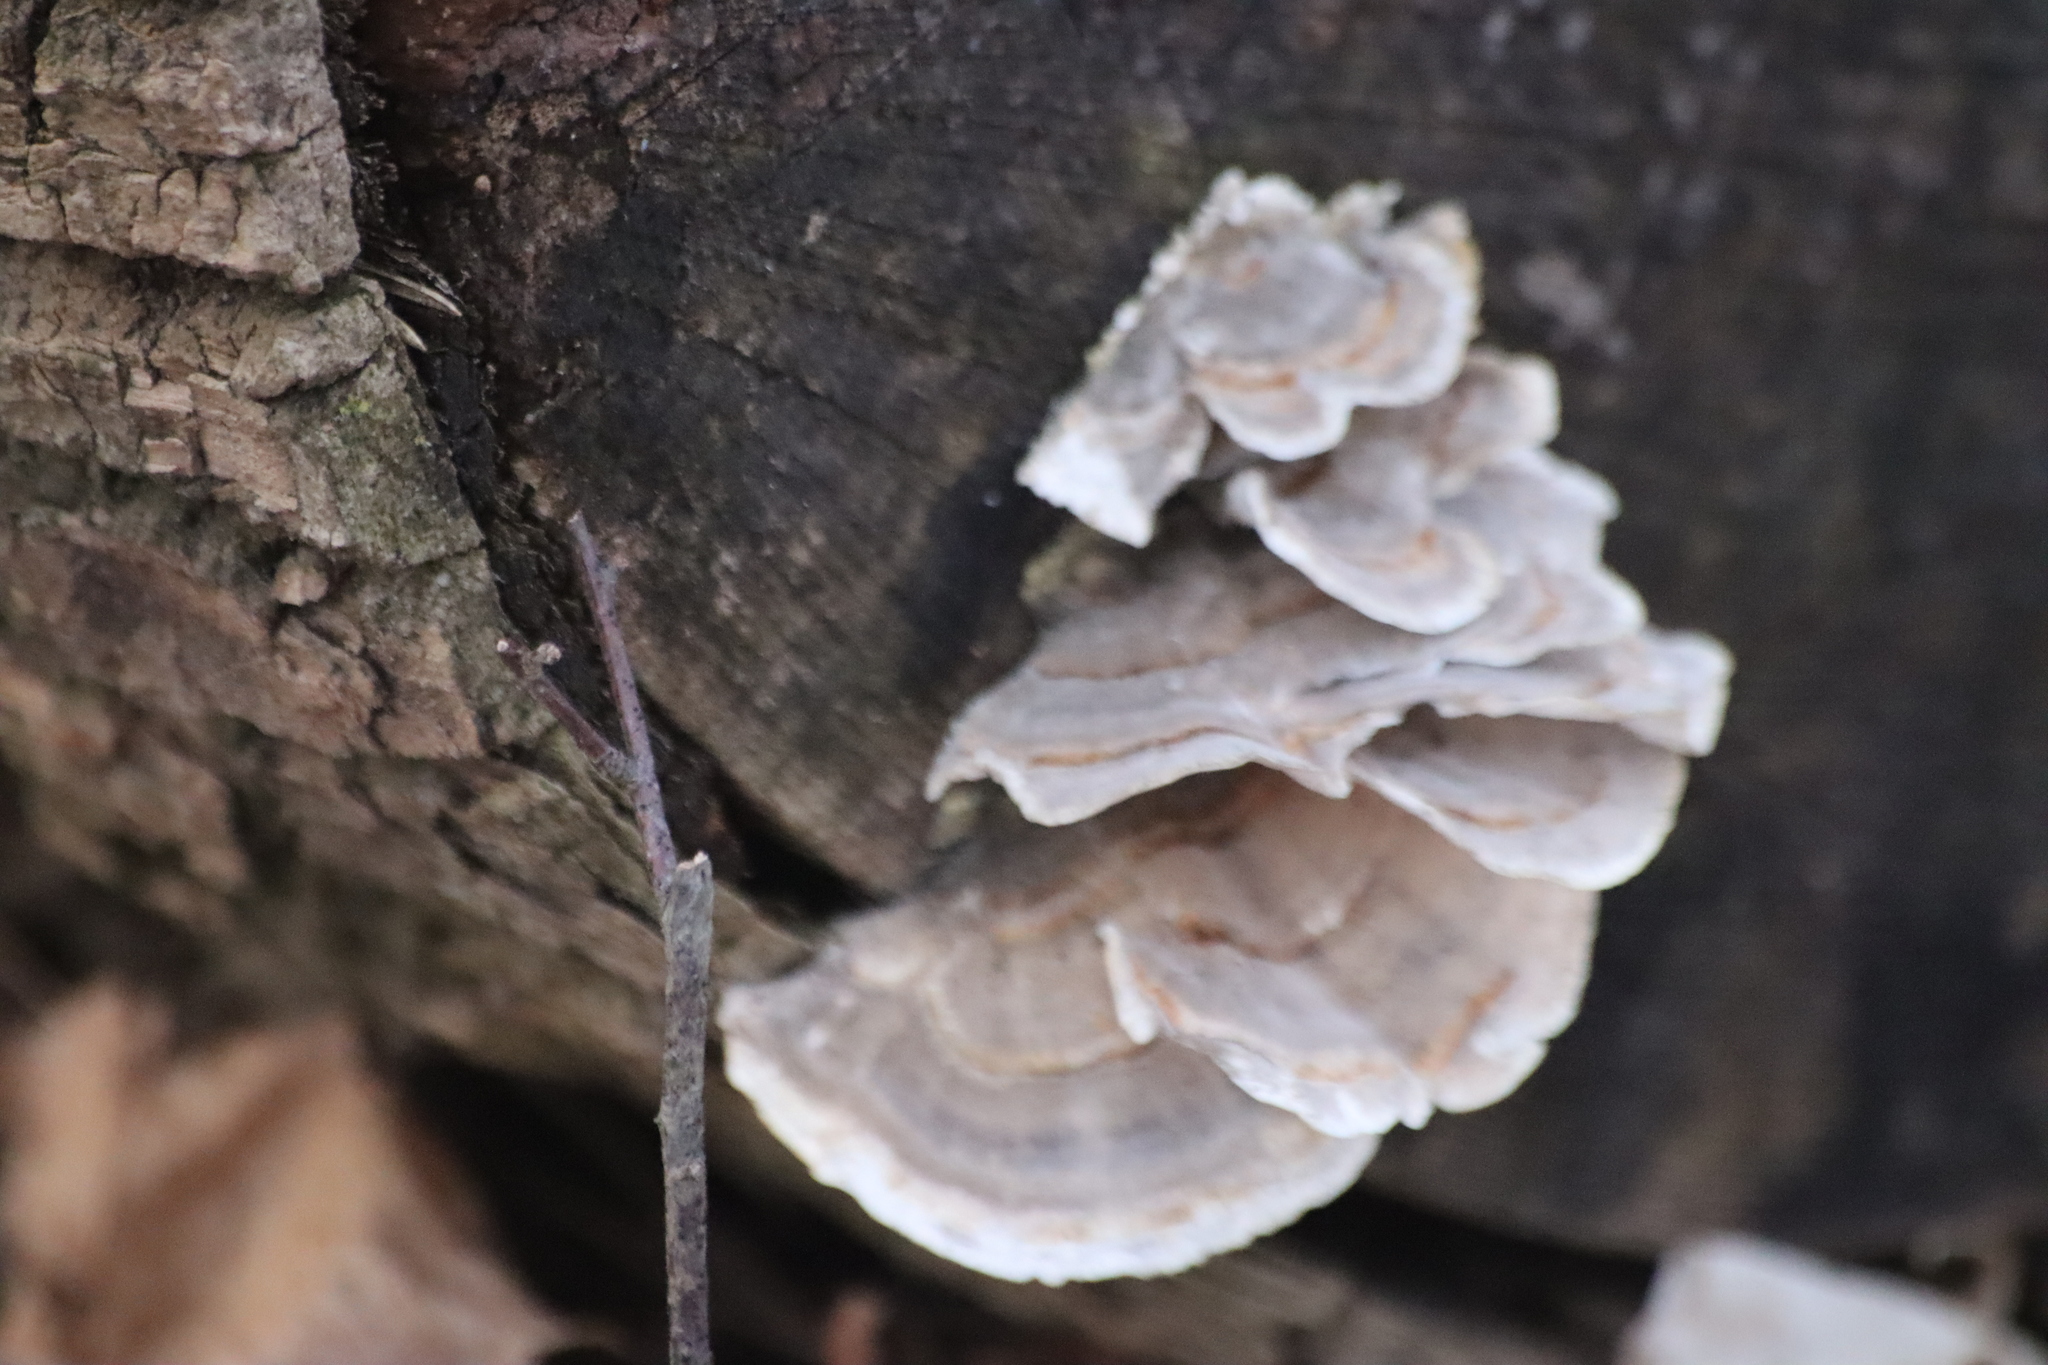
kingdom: Fungi
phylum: Basidiomycota
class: Agaricomycetes
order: Polyporales
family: Polyporaceae
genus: Trametes
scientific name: Trametes versicolor
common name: Turkeytail
